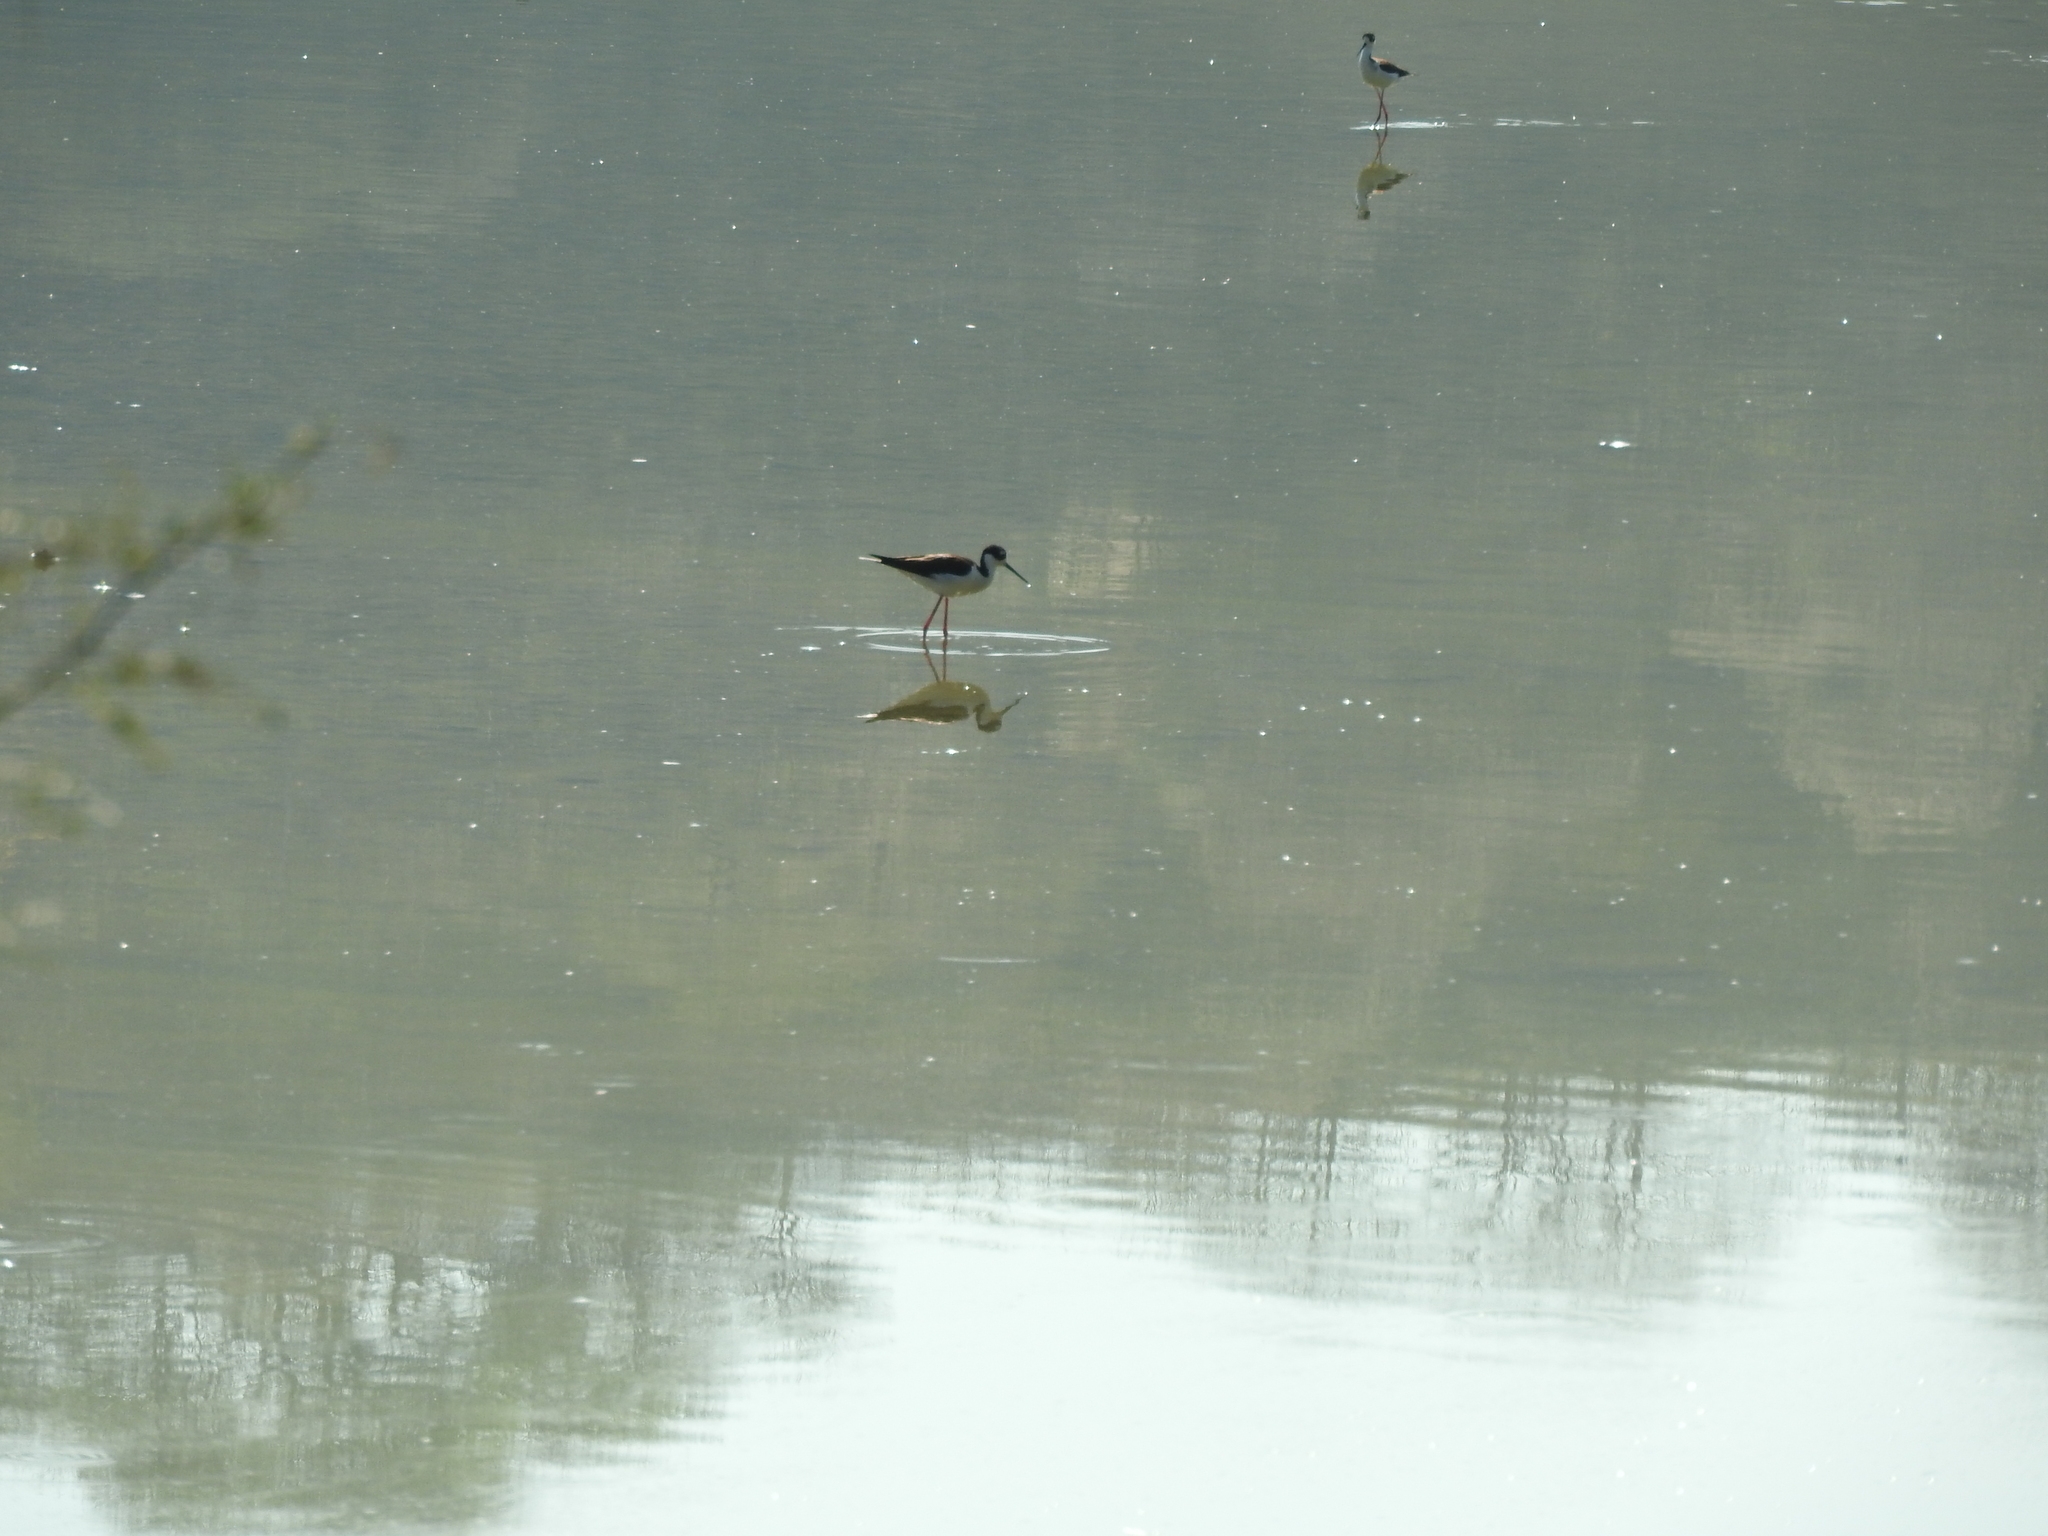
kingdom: Animalia
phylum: Chordata
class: Aves
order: Charadriiformes
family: Recurvirostridae
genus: Himantopus
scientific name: Himantopus mexicanus
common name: Black-necked stilt
